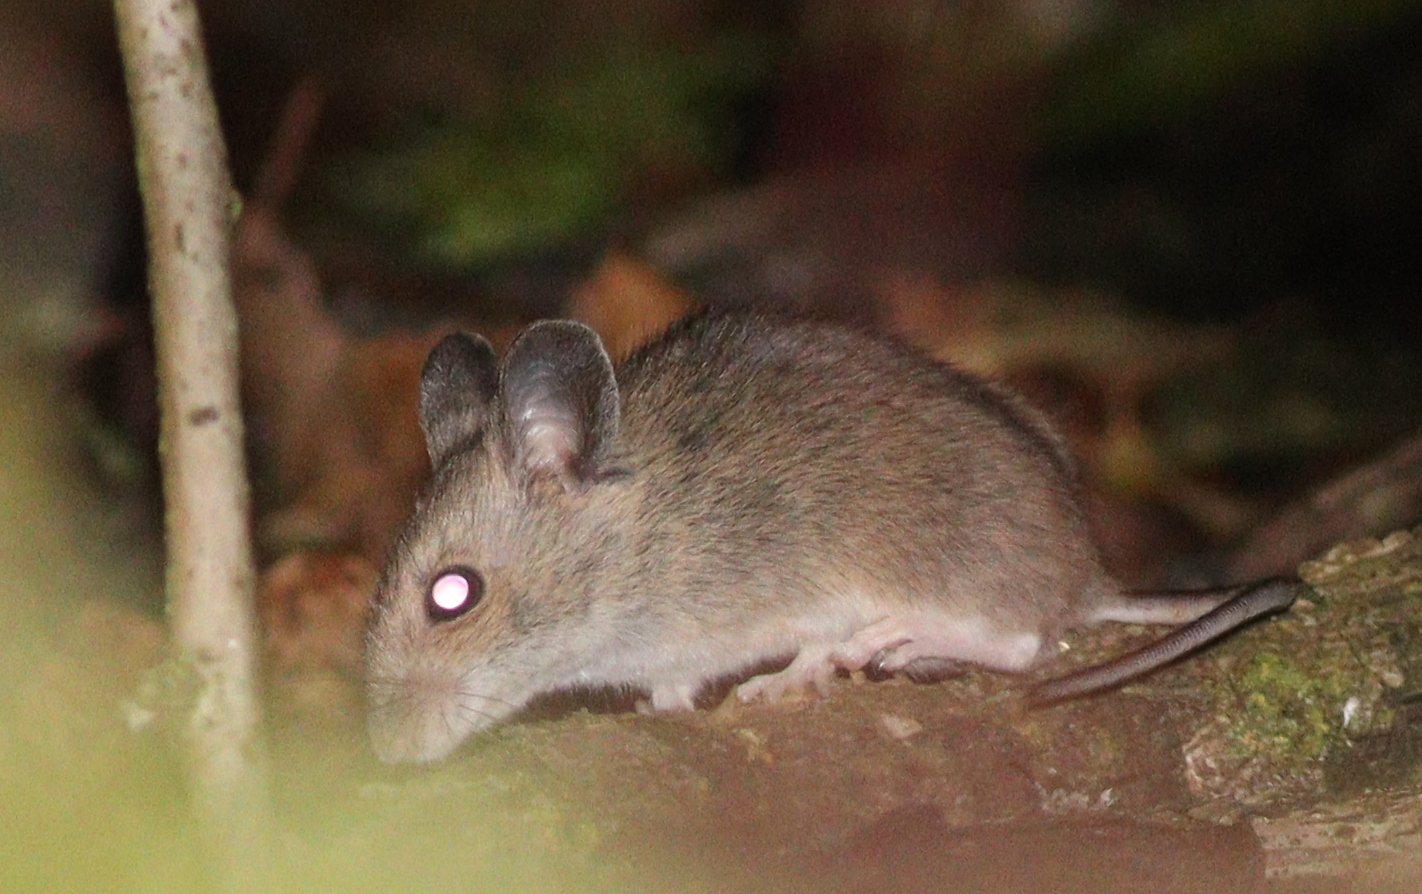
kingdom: Animalia
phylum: Chordata
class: Mammalia
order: Rodentia
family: Muridae
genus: Apodemus
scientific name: Apodemus sylvaticus
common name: Wood mouse
